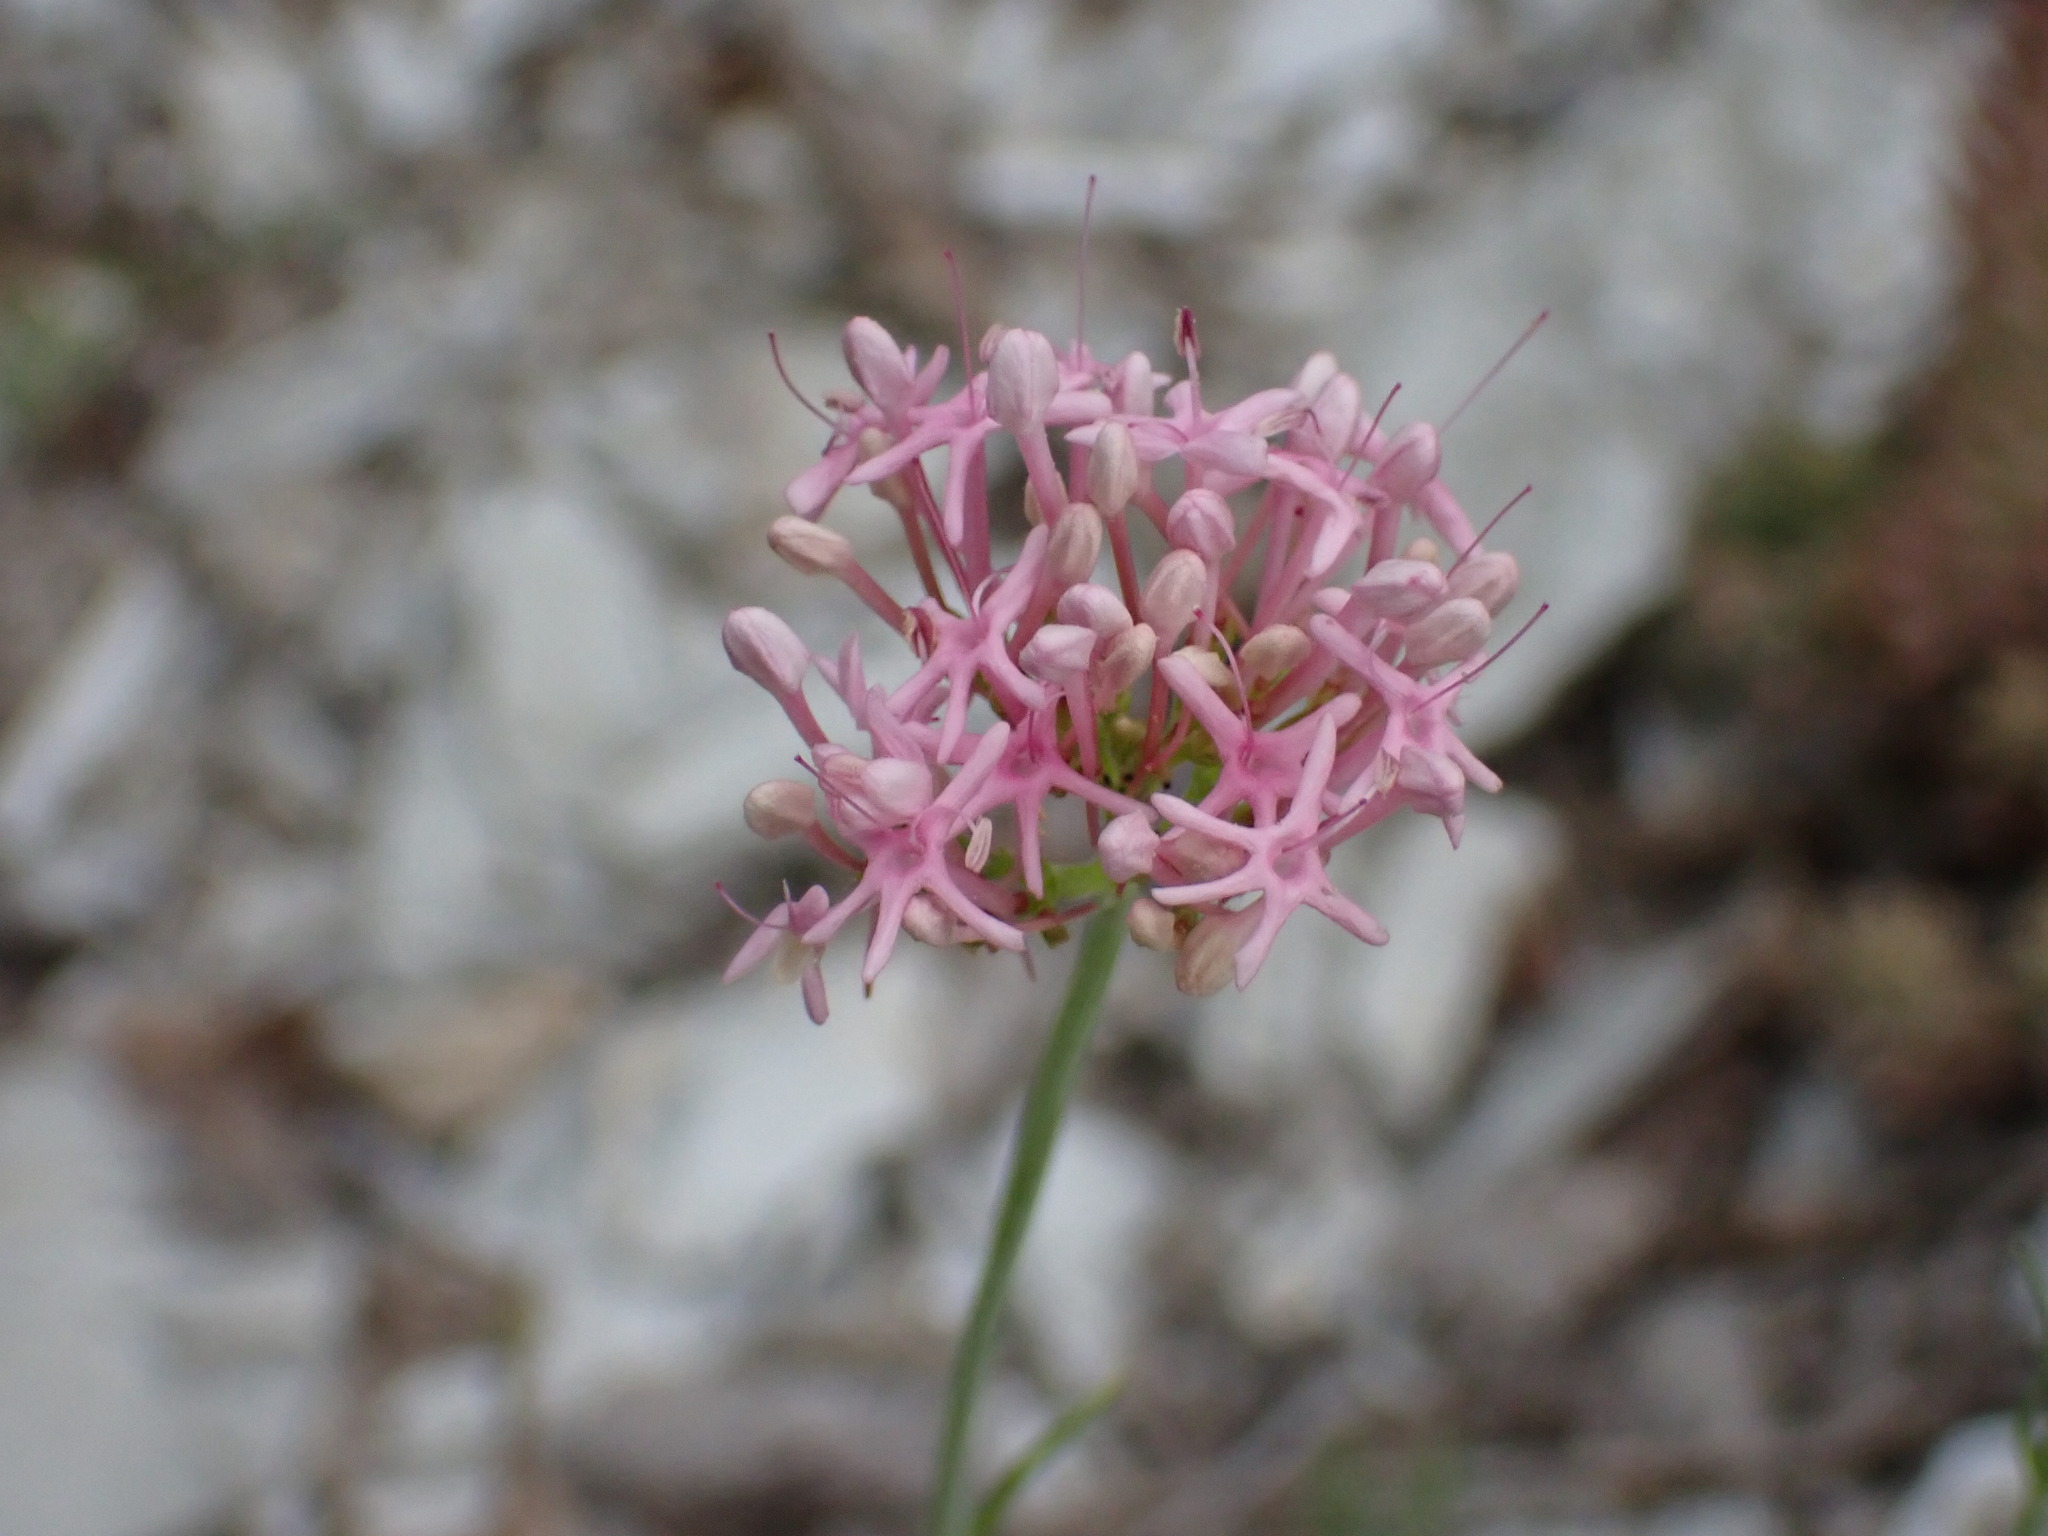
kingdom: Plantae
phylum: Tracheophyta
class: Magnoliopsida
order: Dipsacales
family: Caprifoliaceae
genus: Centranthus
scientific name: Centranthus angustifolius
